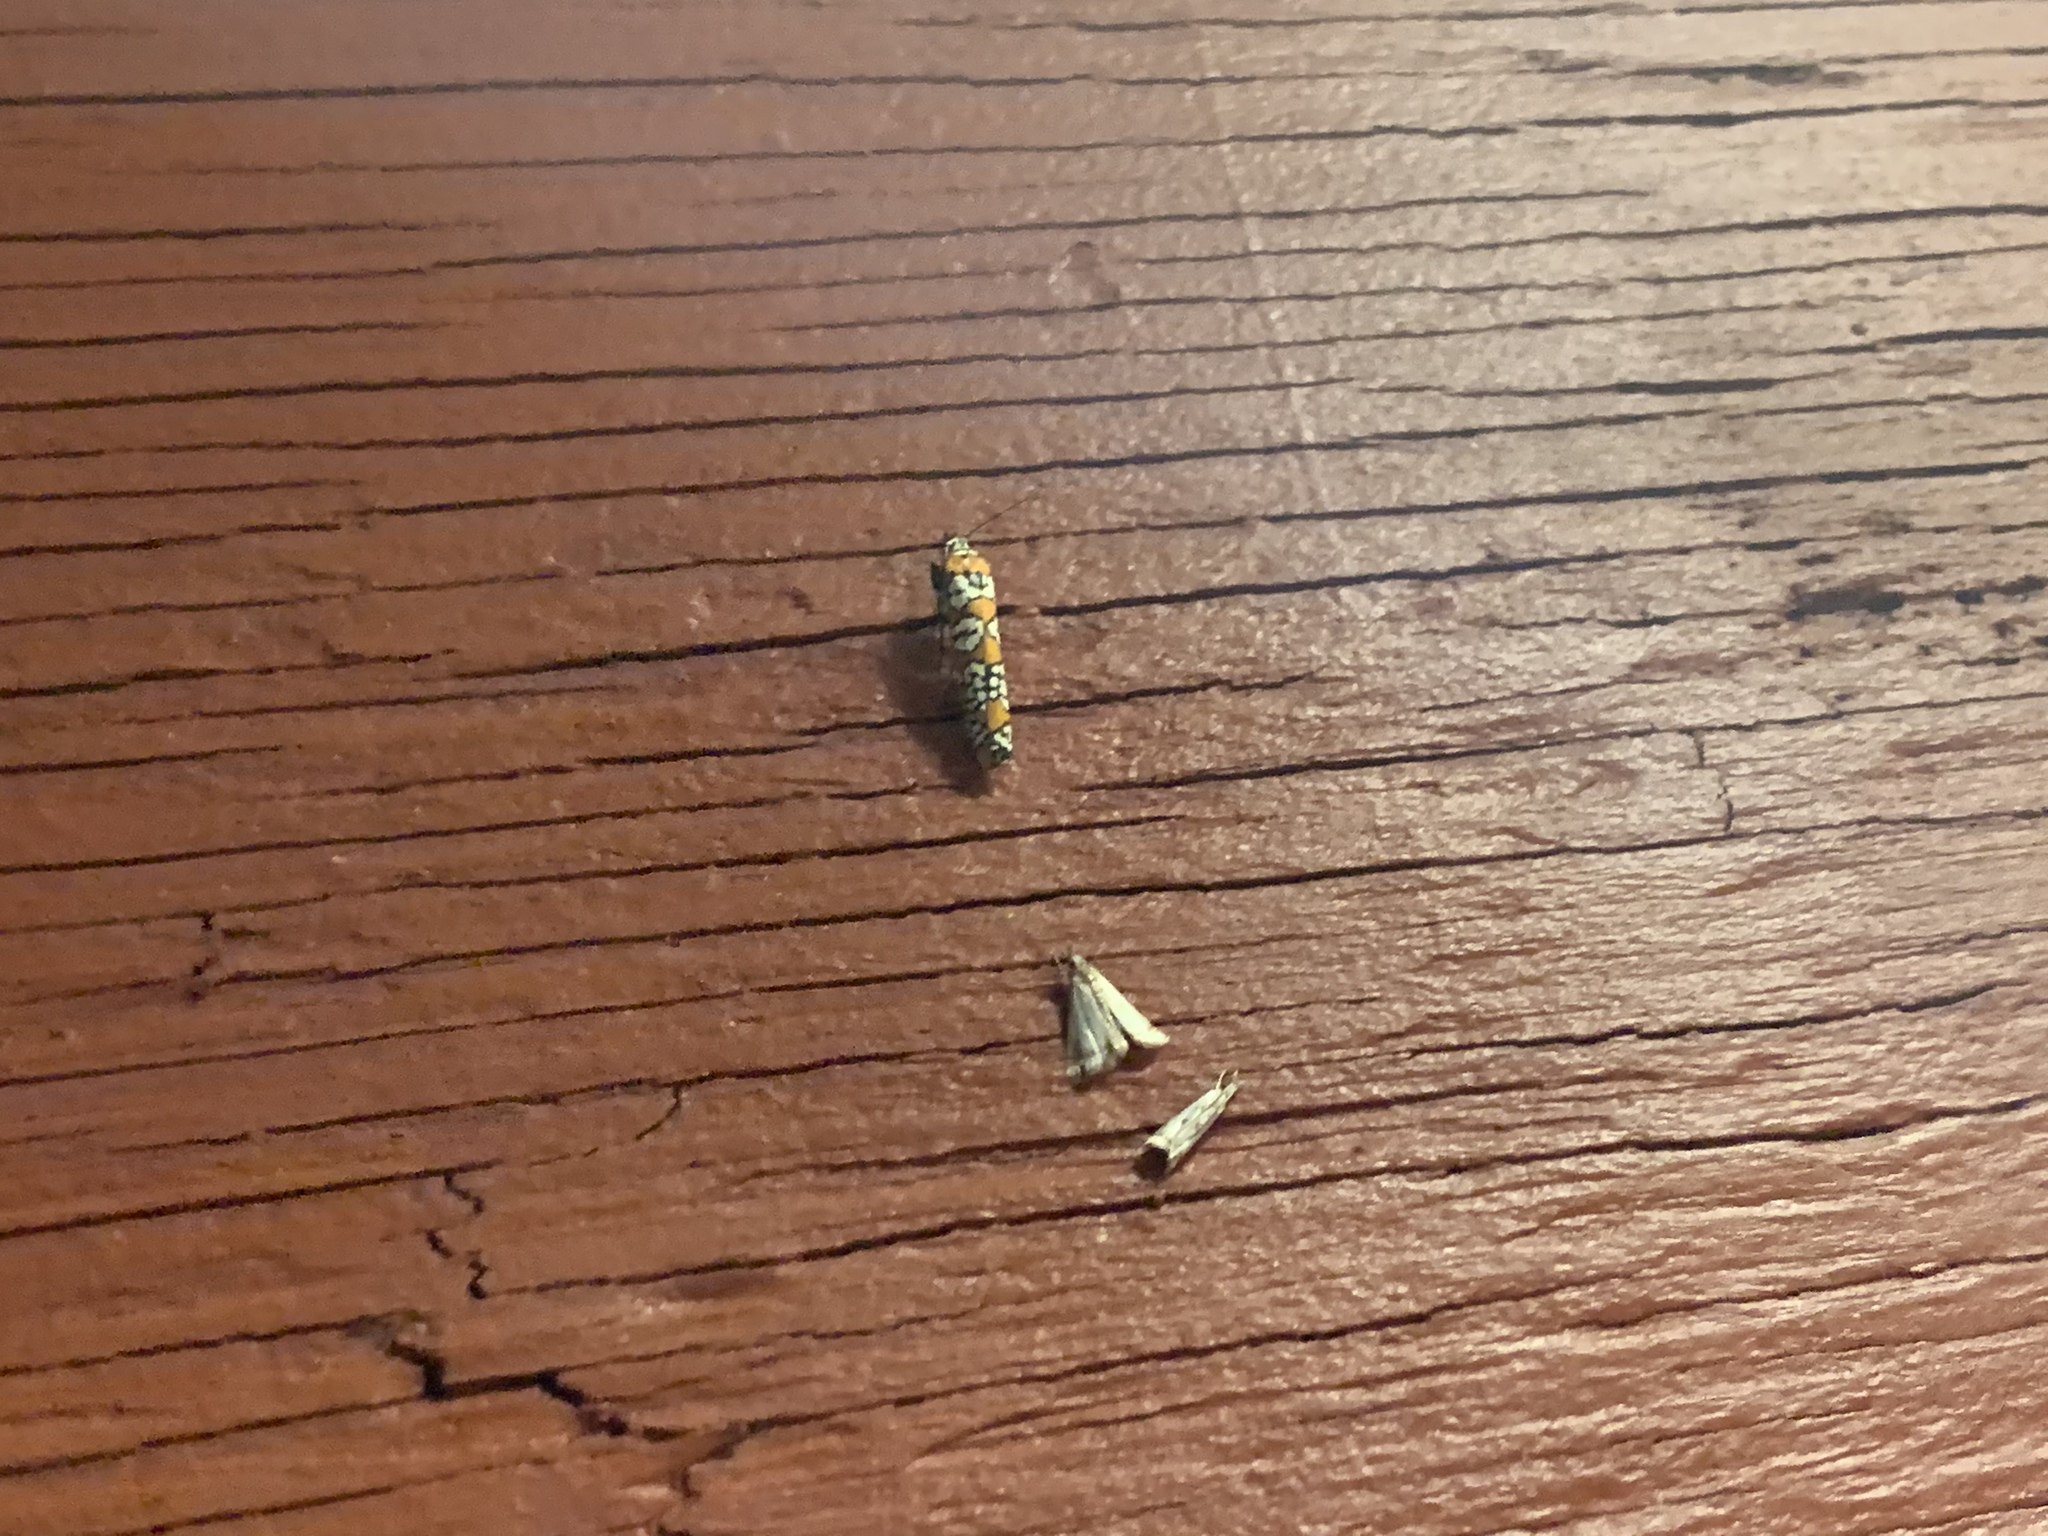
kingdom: Animalia
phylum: Arthropoda
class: Insecta
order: Lepidoptera
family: Attevidae
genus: Atteva
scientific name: Atteva punctella
